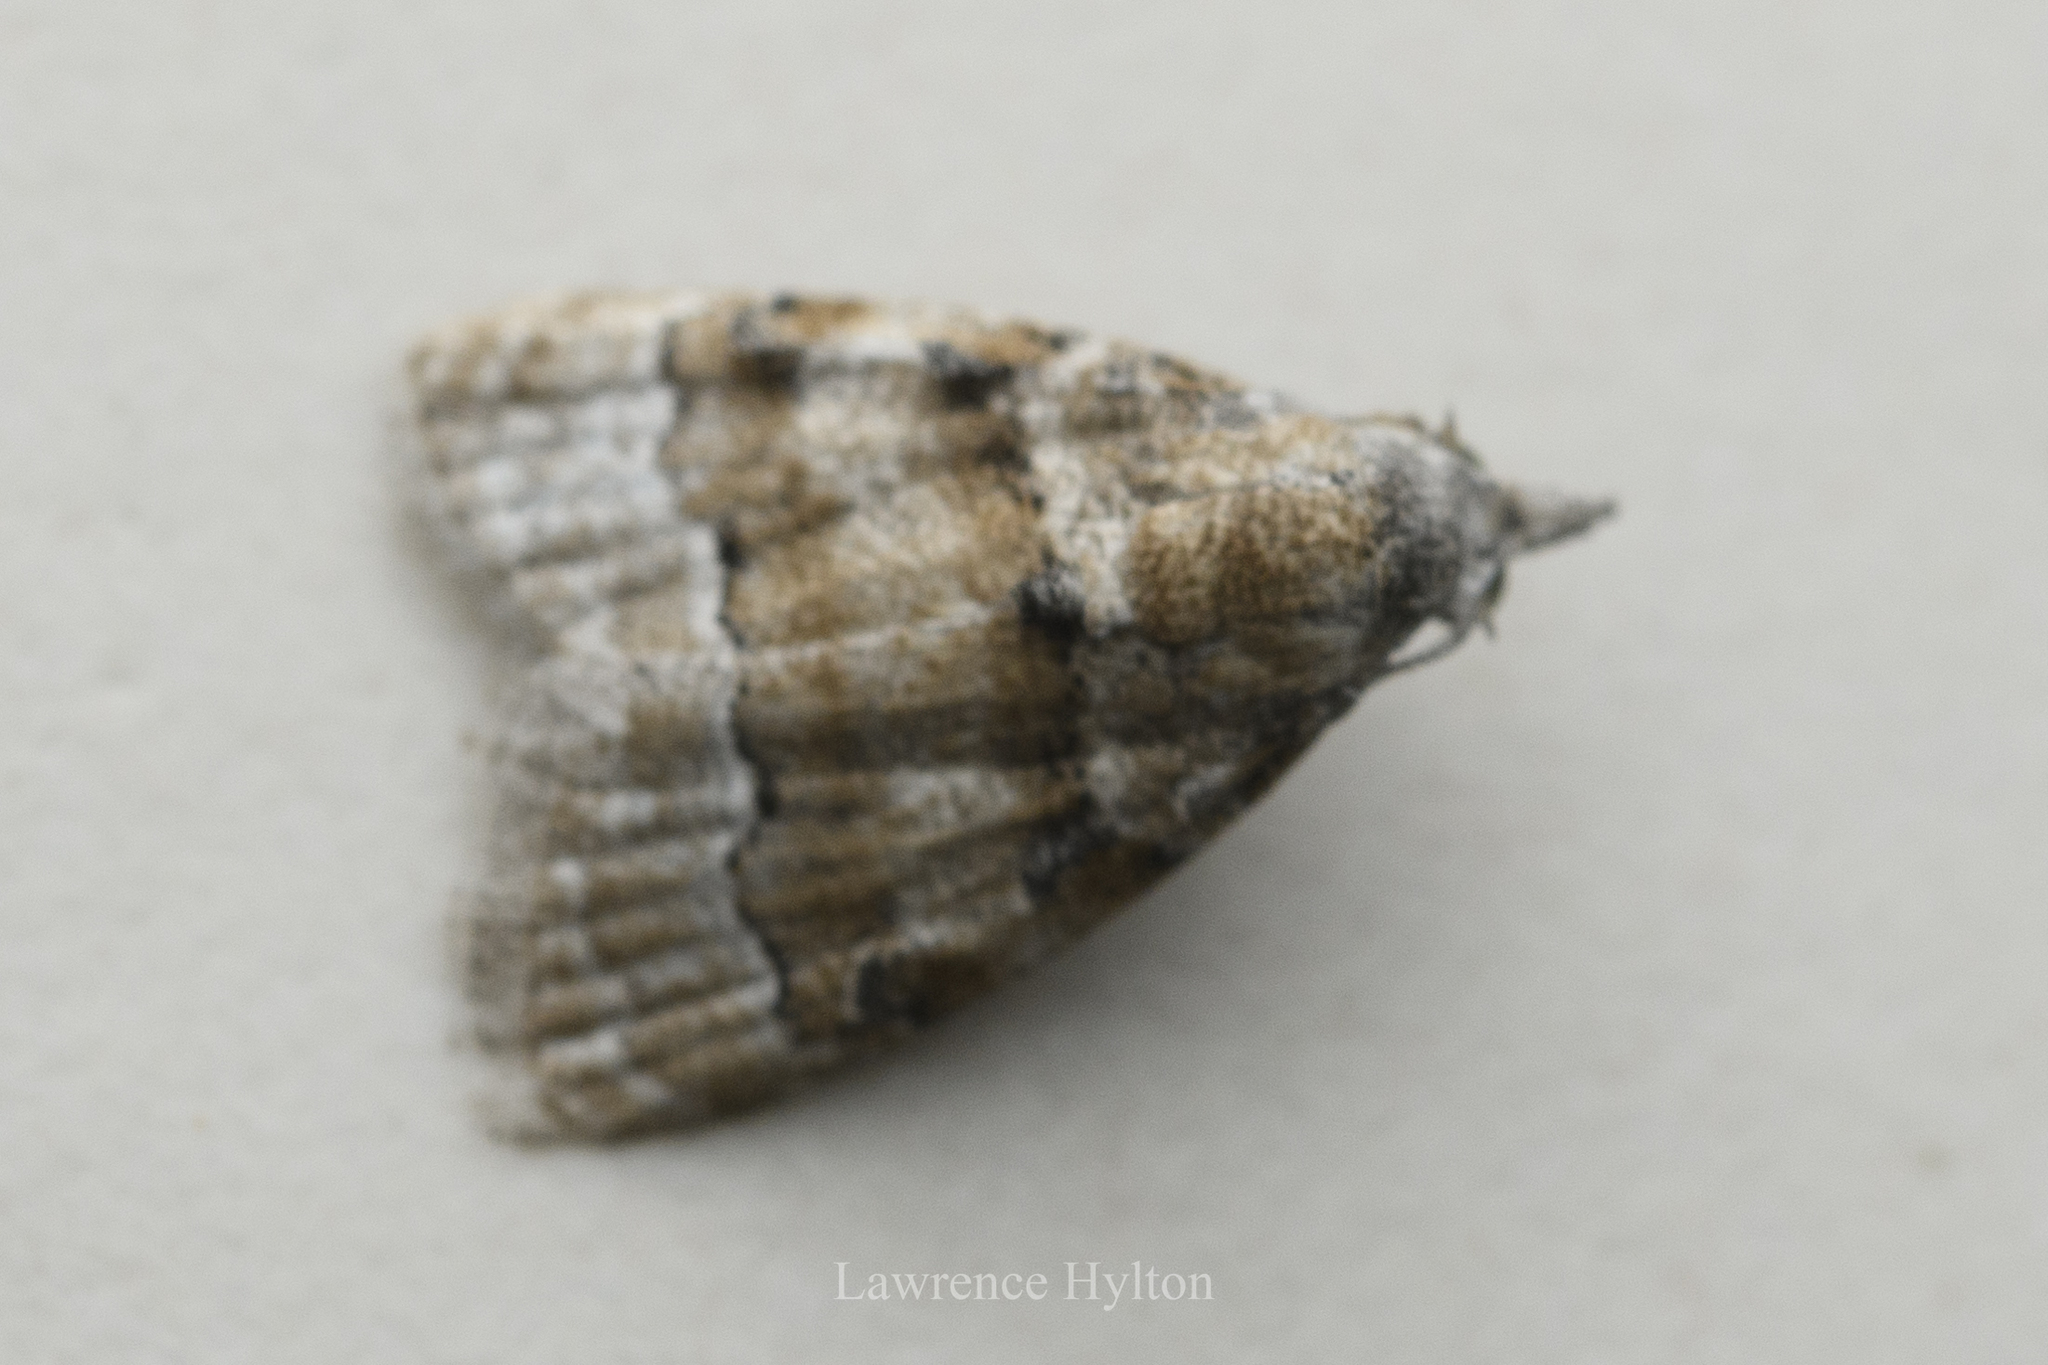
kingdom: Animalia
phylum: Arthropoda
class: Insecta
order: Lepidoptera
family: Nolidae
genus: Nola
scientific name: Nola bifascialis
